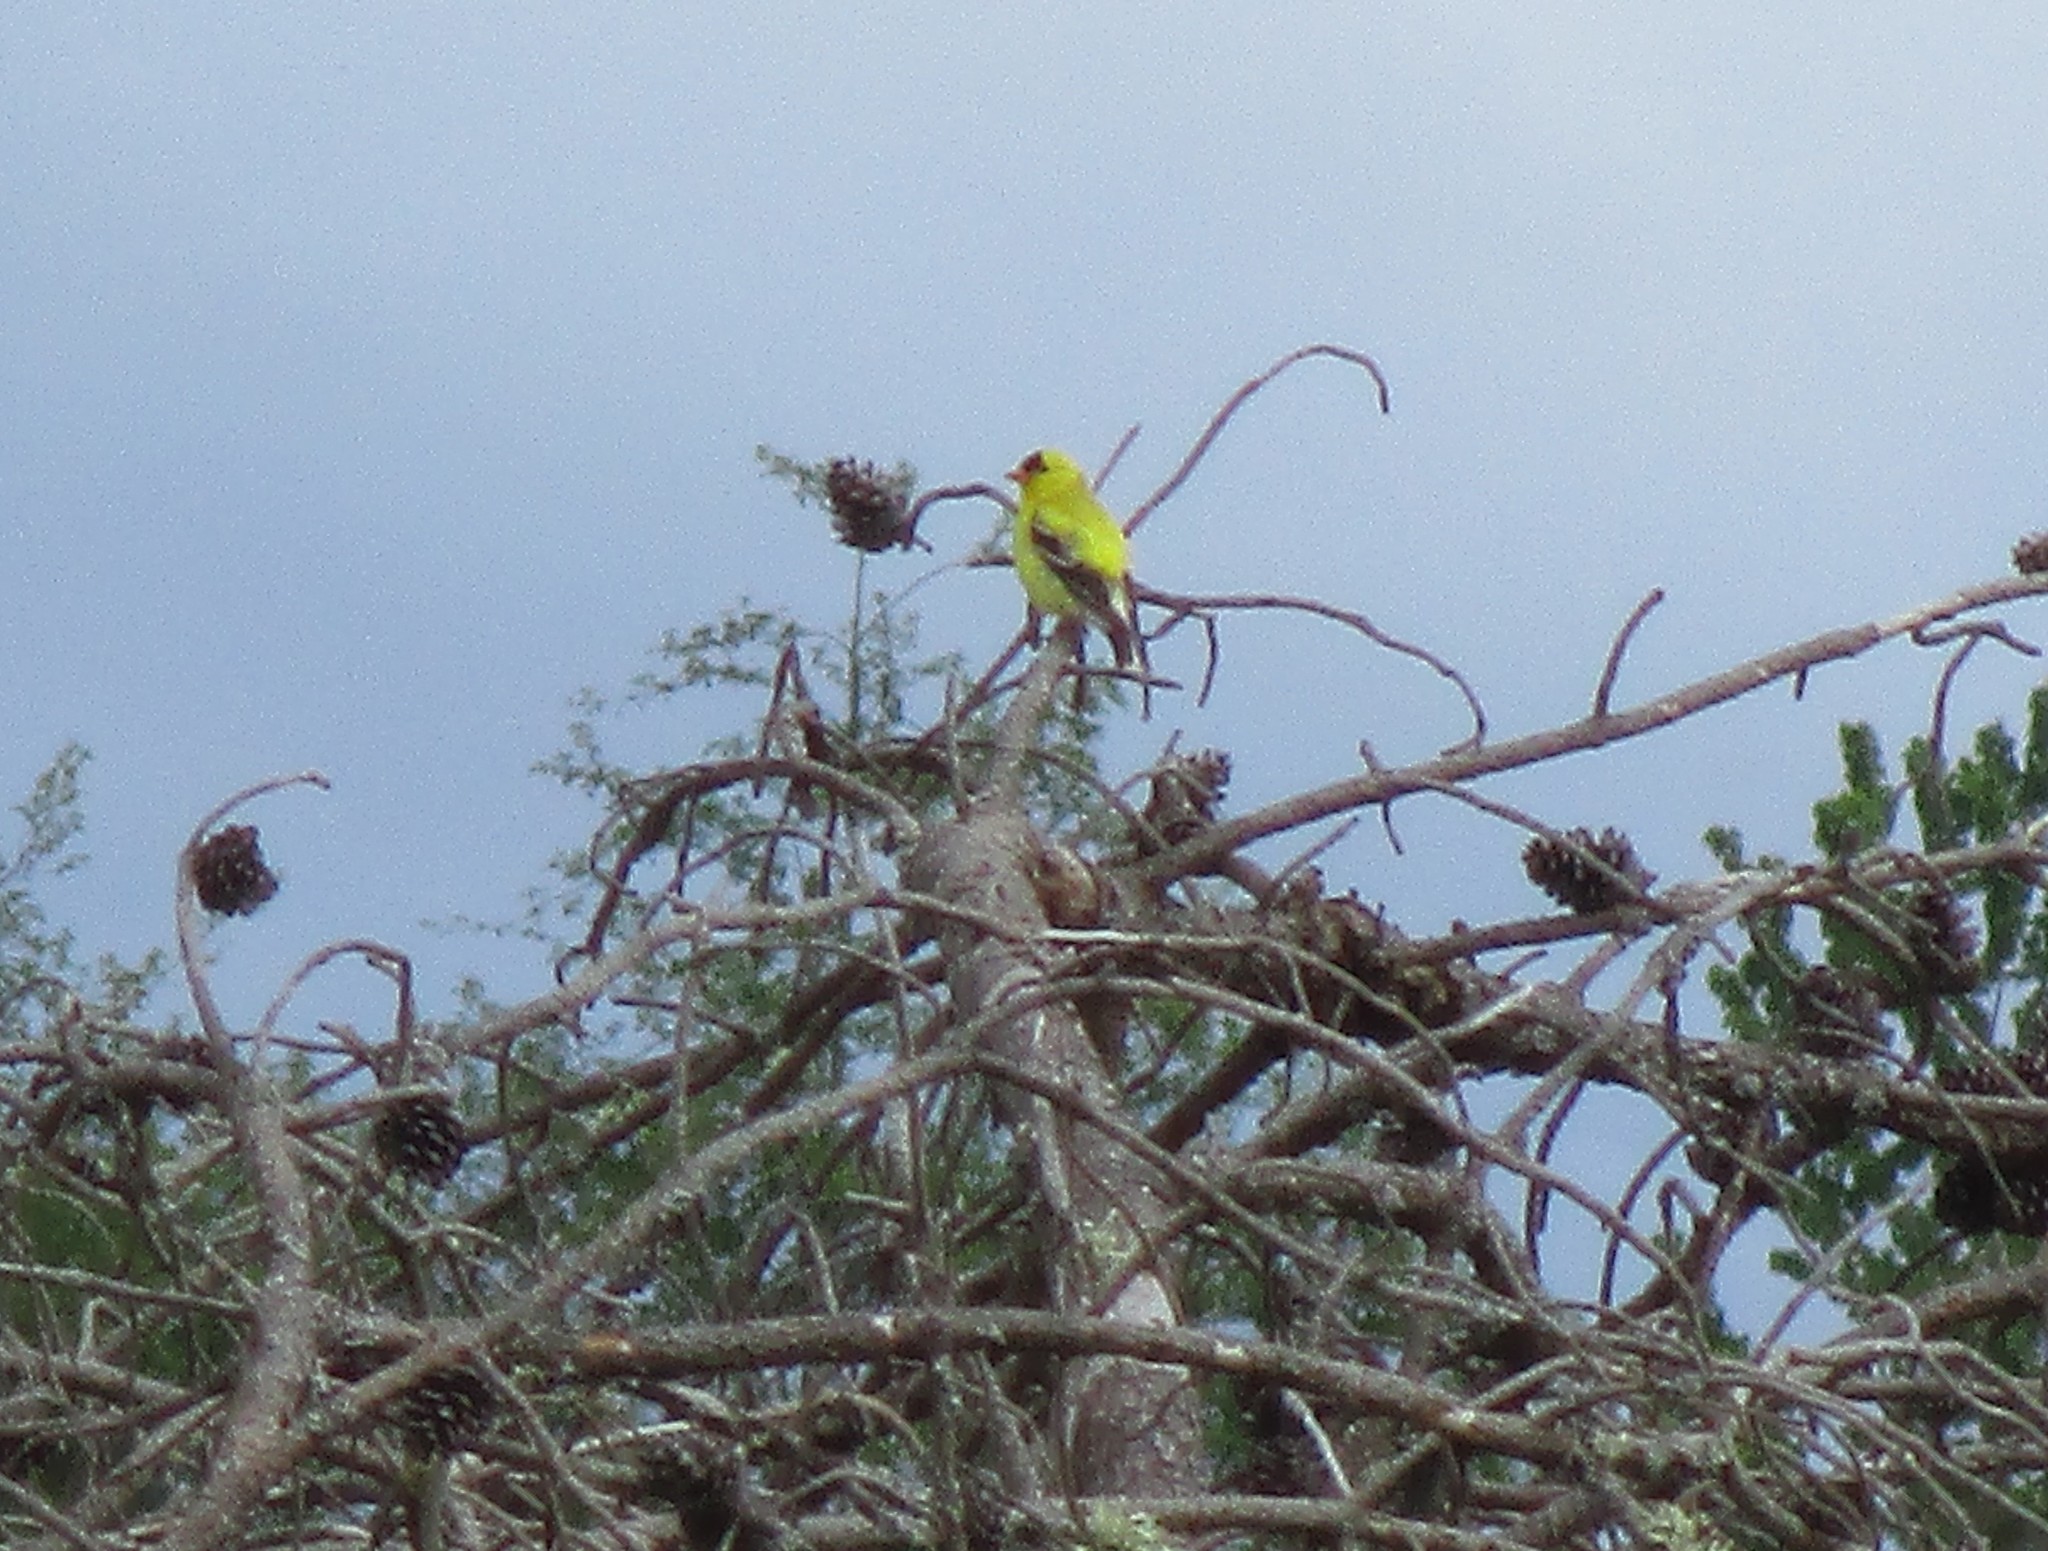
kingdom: Animalia
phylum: Chordata
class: Aves
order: Passeriformes
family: Fringillidae
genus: Spinus
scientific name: Spinus tristis
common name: American goldfinch
